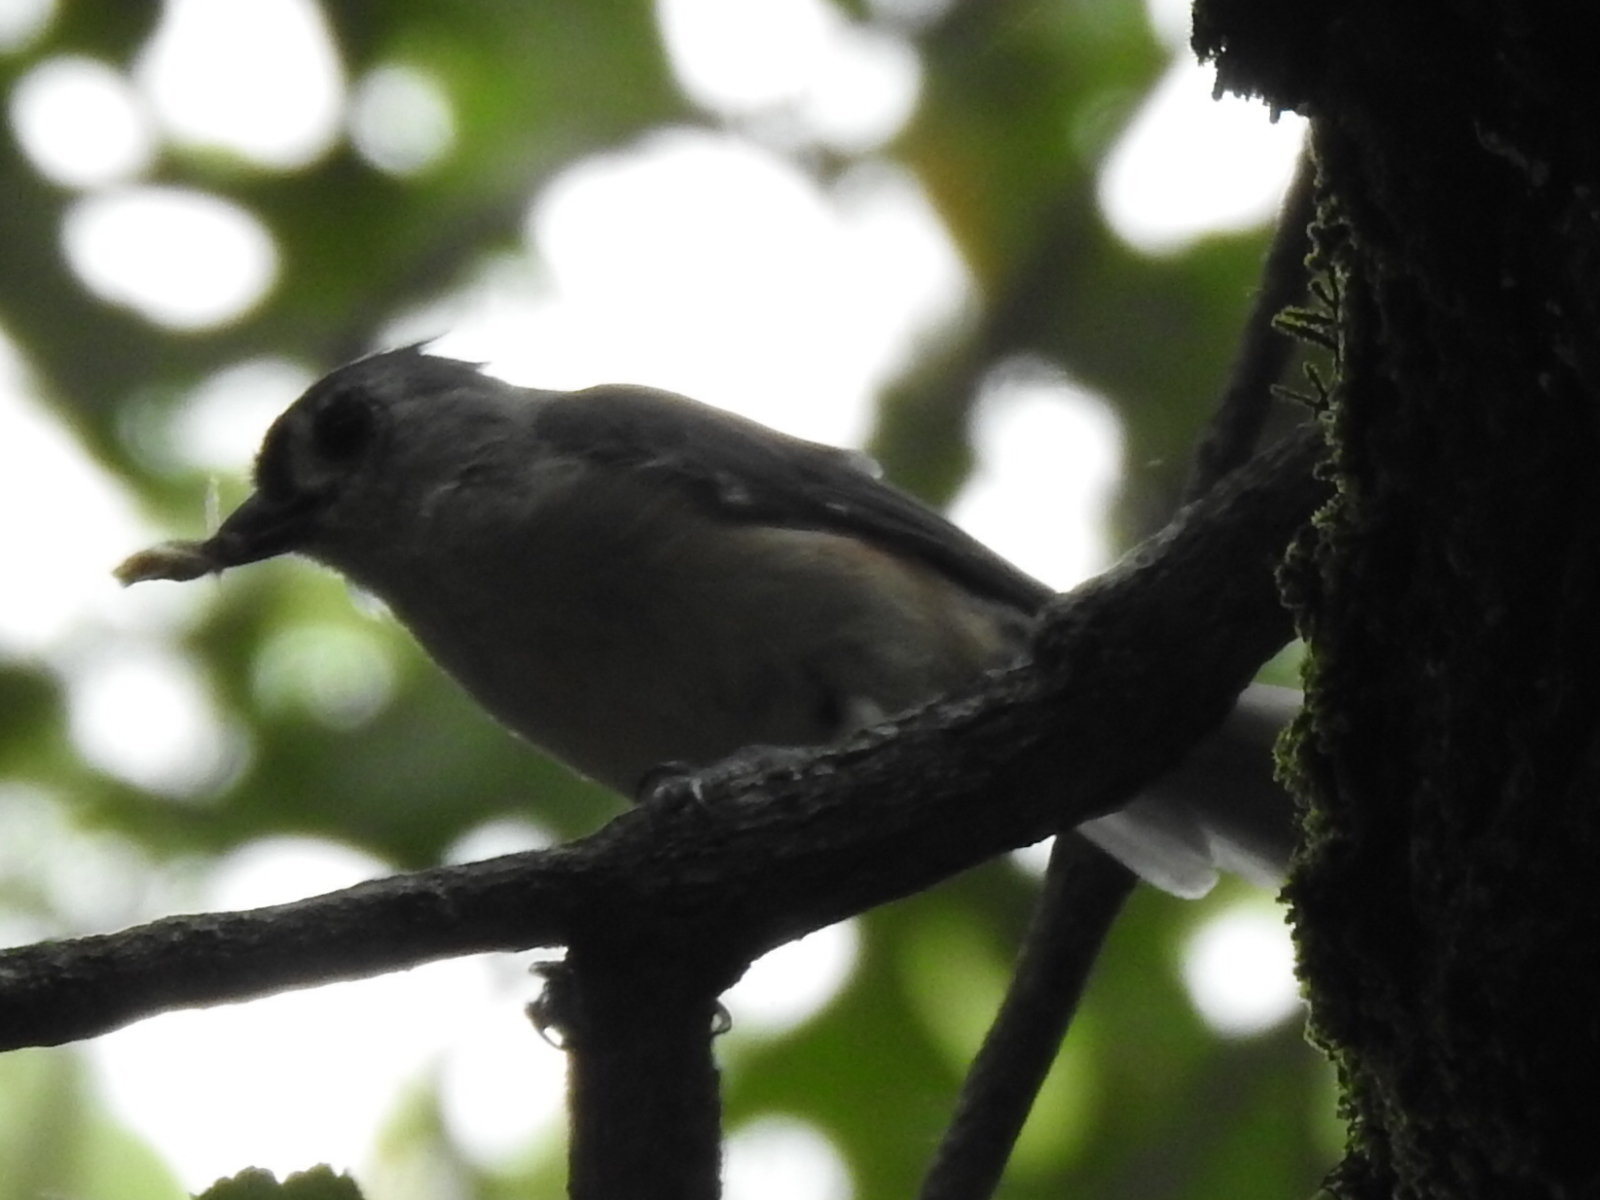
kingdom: Animalia
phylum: Chordata
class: Aves
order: Passeriformes
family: Paridae
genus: Baeolophus
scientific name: Baeolophus bicolor
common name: Tufted titmouse
